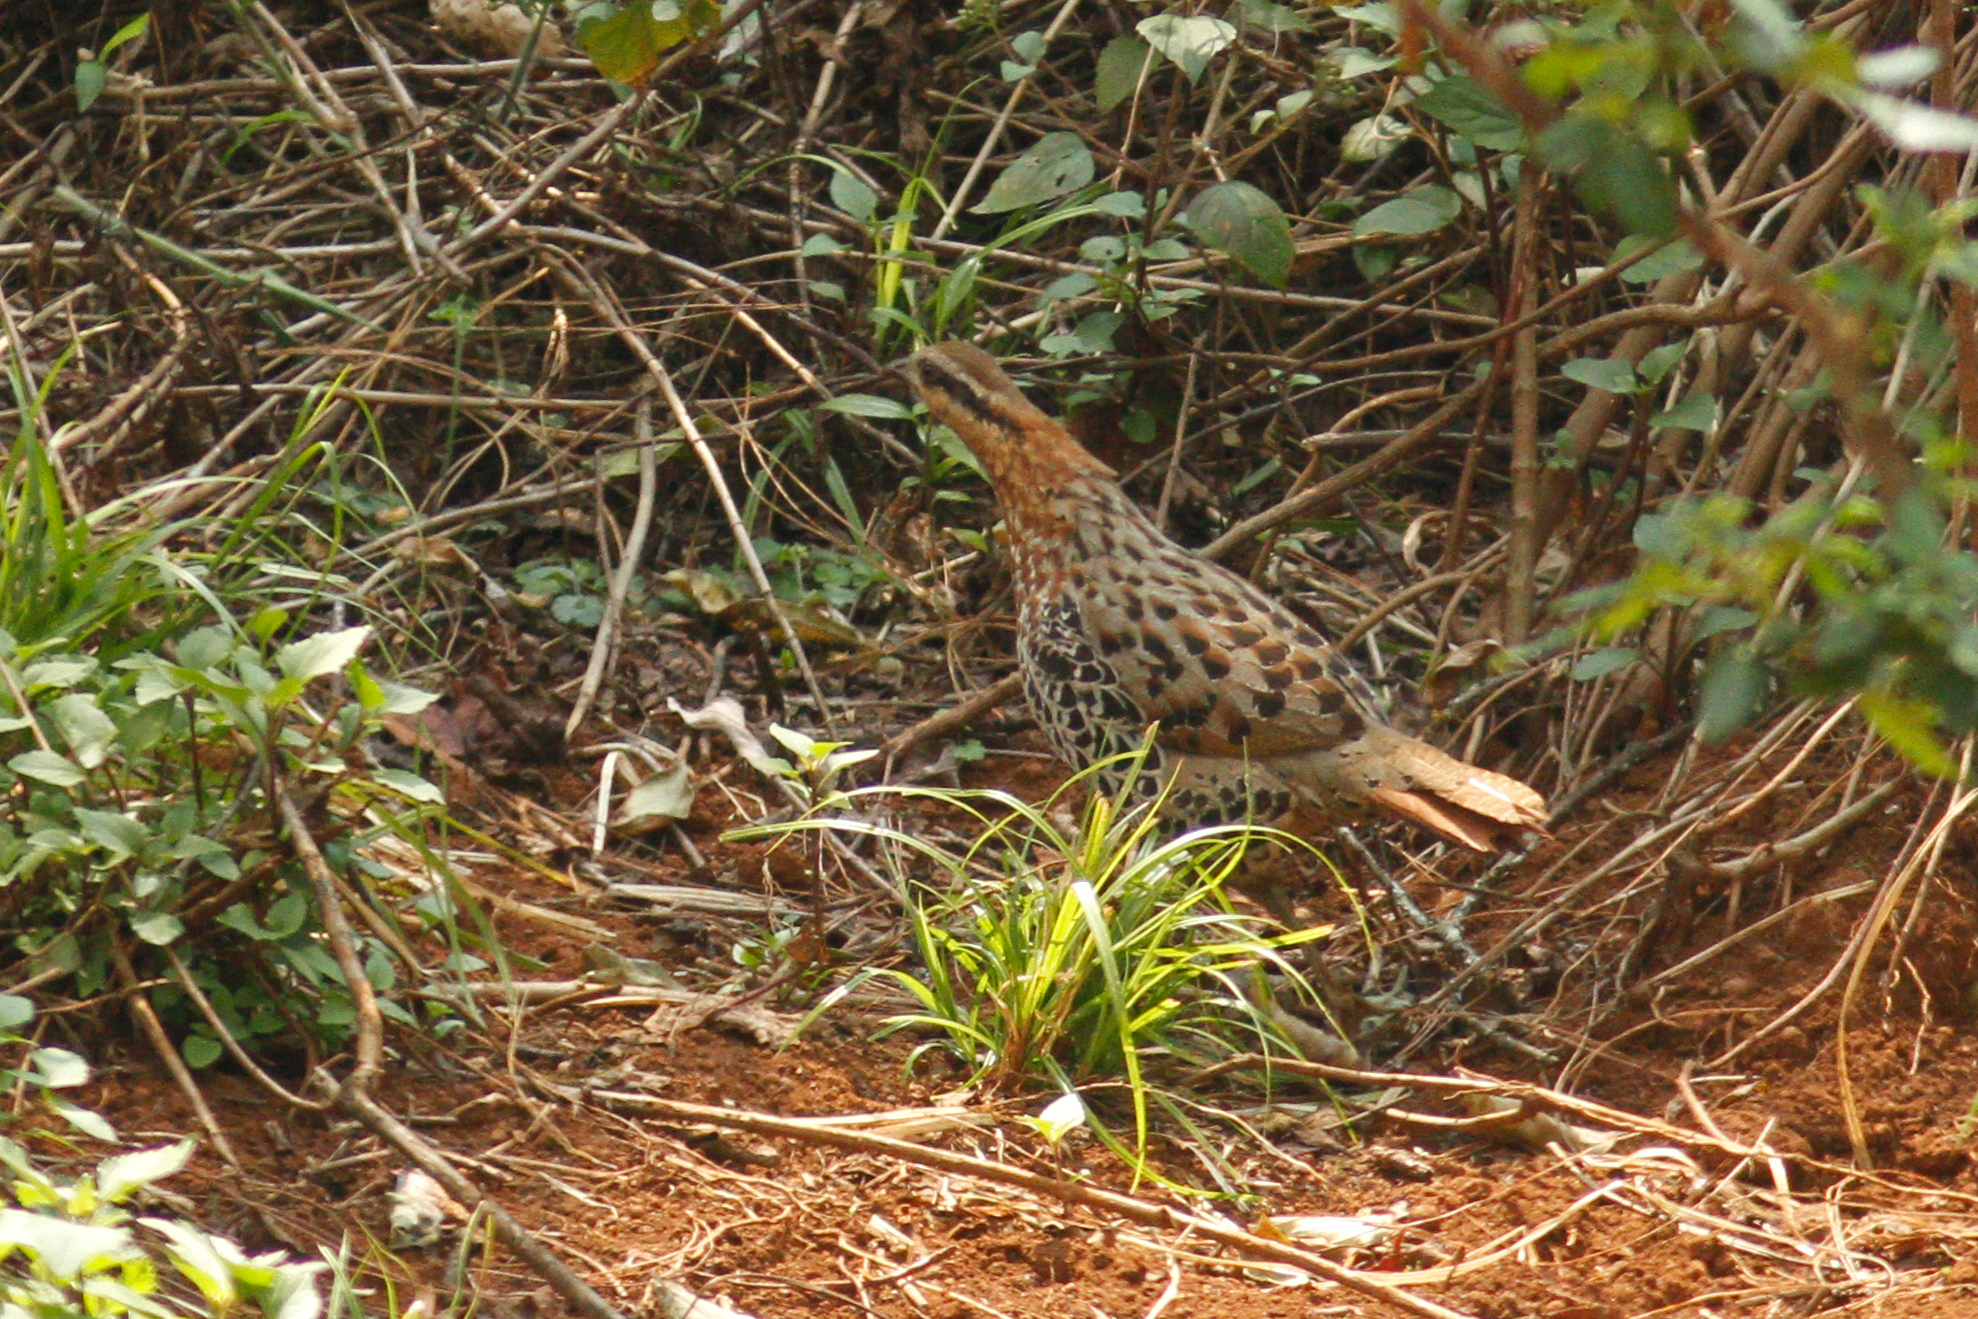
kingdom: Animalia
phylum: Chordata
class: Aves
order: Galliformes
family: Phasianidae
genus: Bambusicola
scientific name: Bambusicola fytchii
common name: Mountain bamboo-partridge
